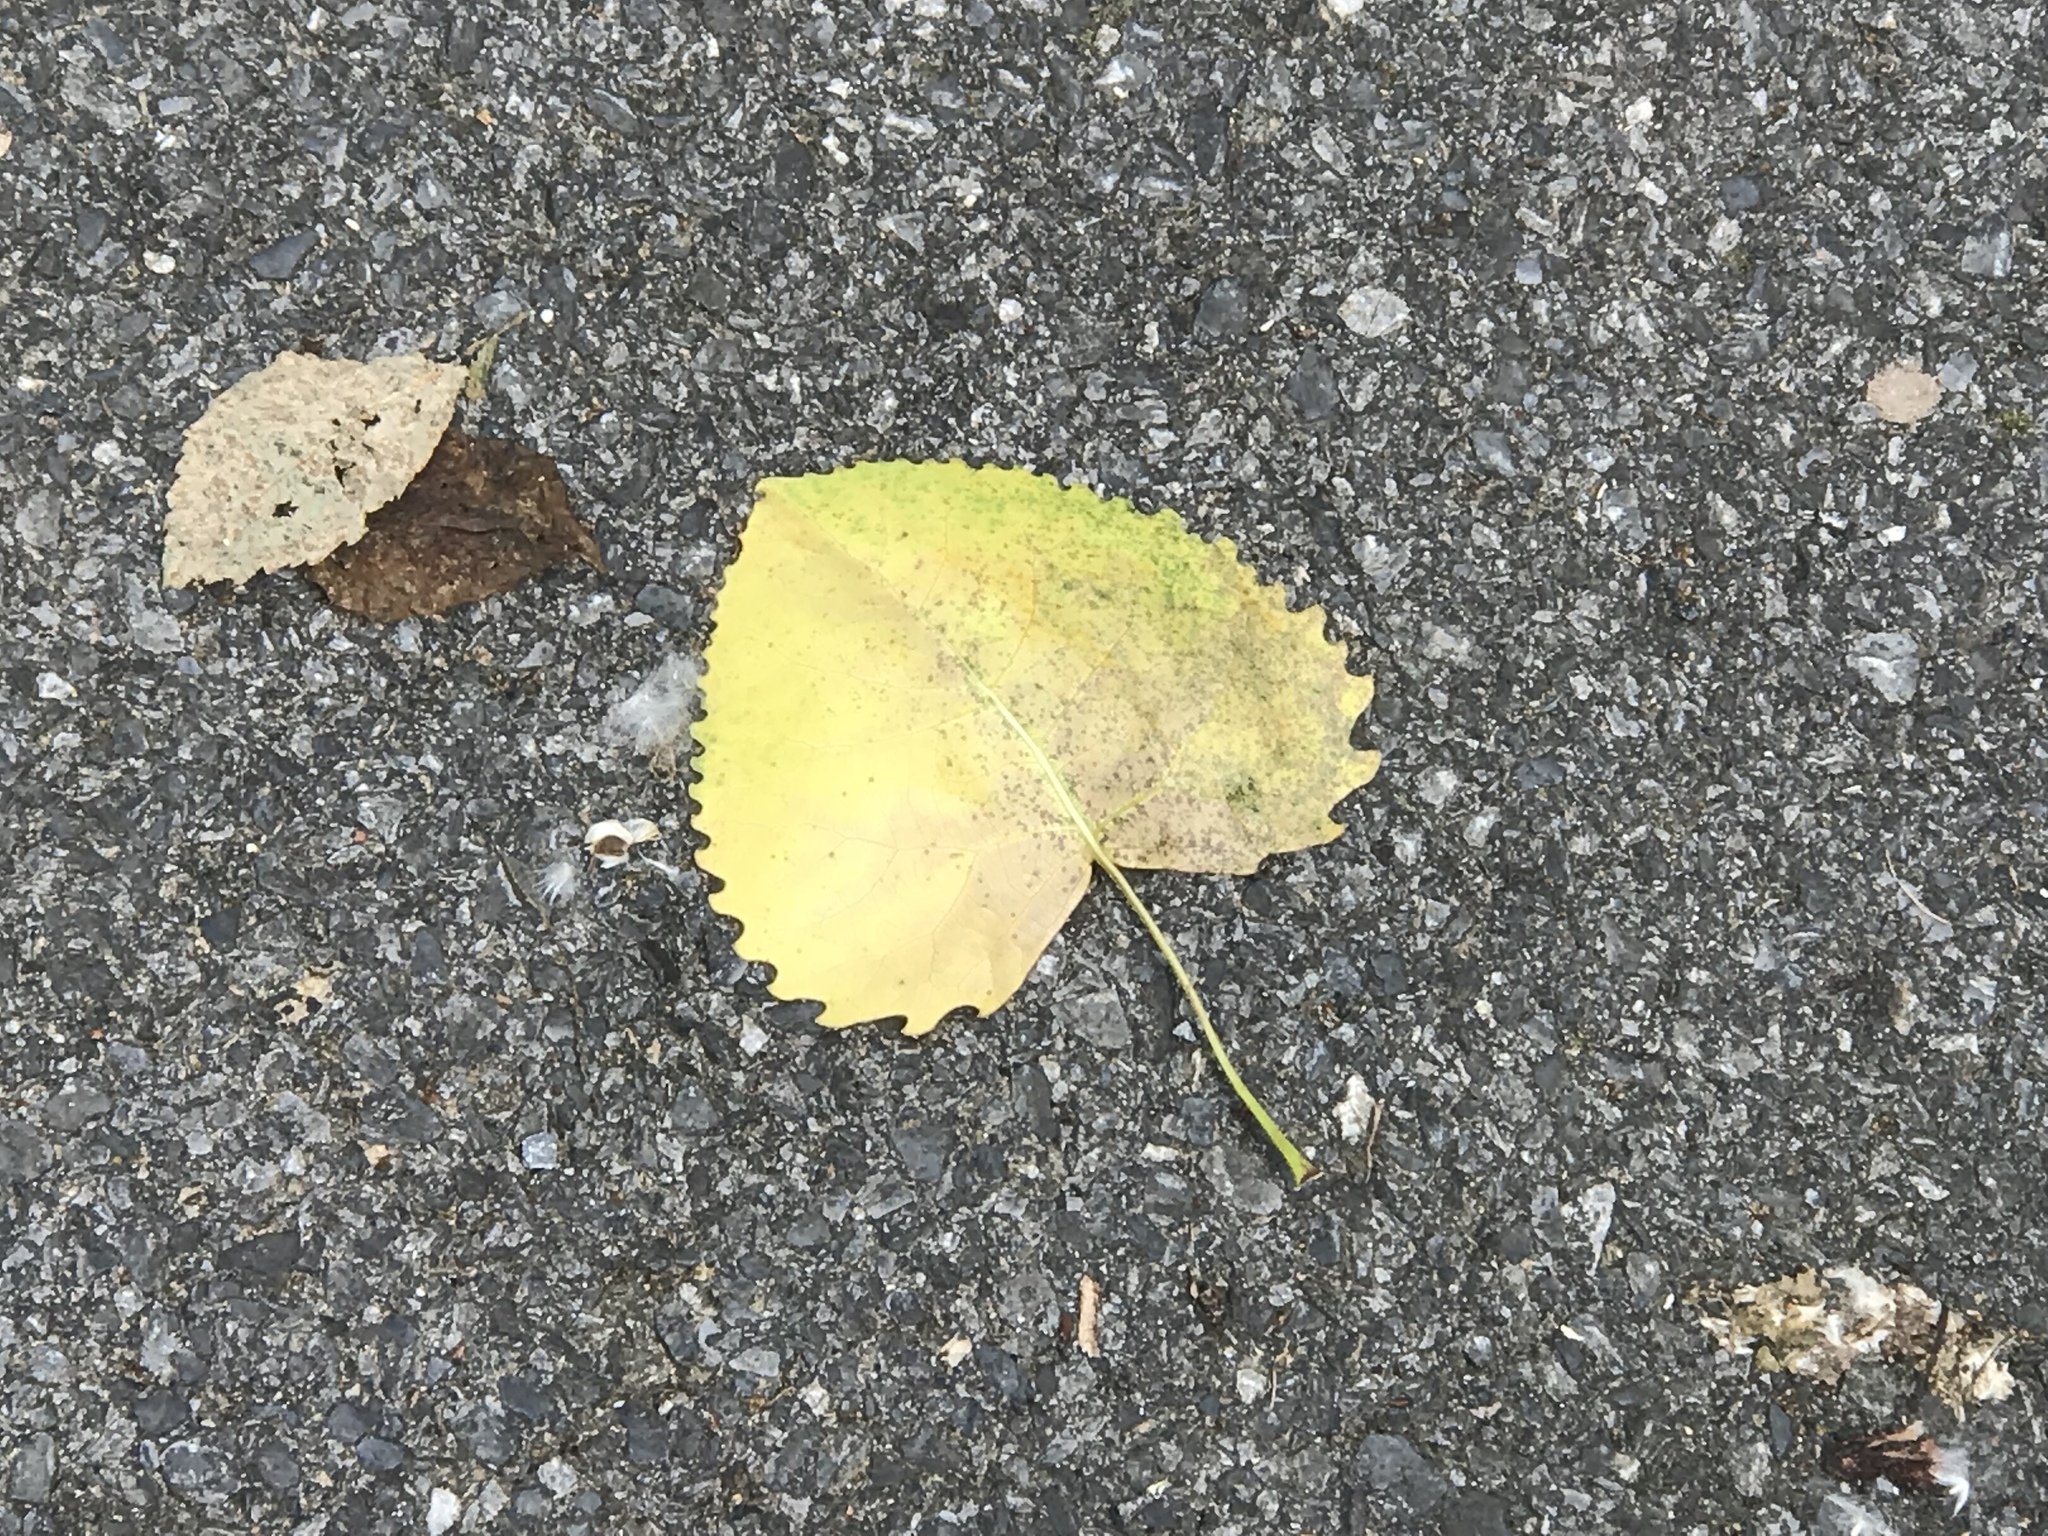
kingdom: Plantae
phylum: Tracheophyta
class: Magnoliopsida
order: Malpighiales
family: Salicaceae
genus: Populus
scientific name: Populus deltoides
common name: Eastern cottonwood
